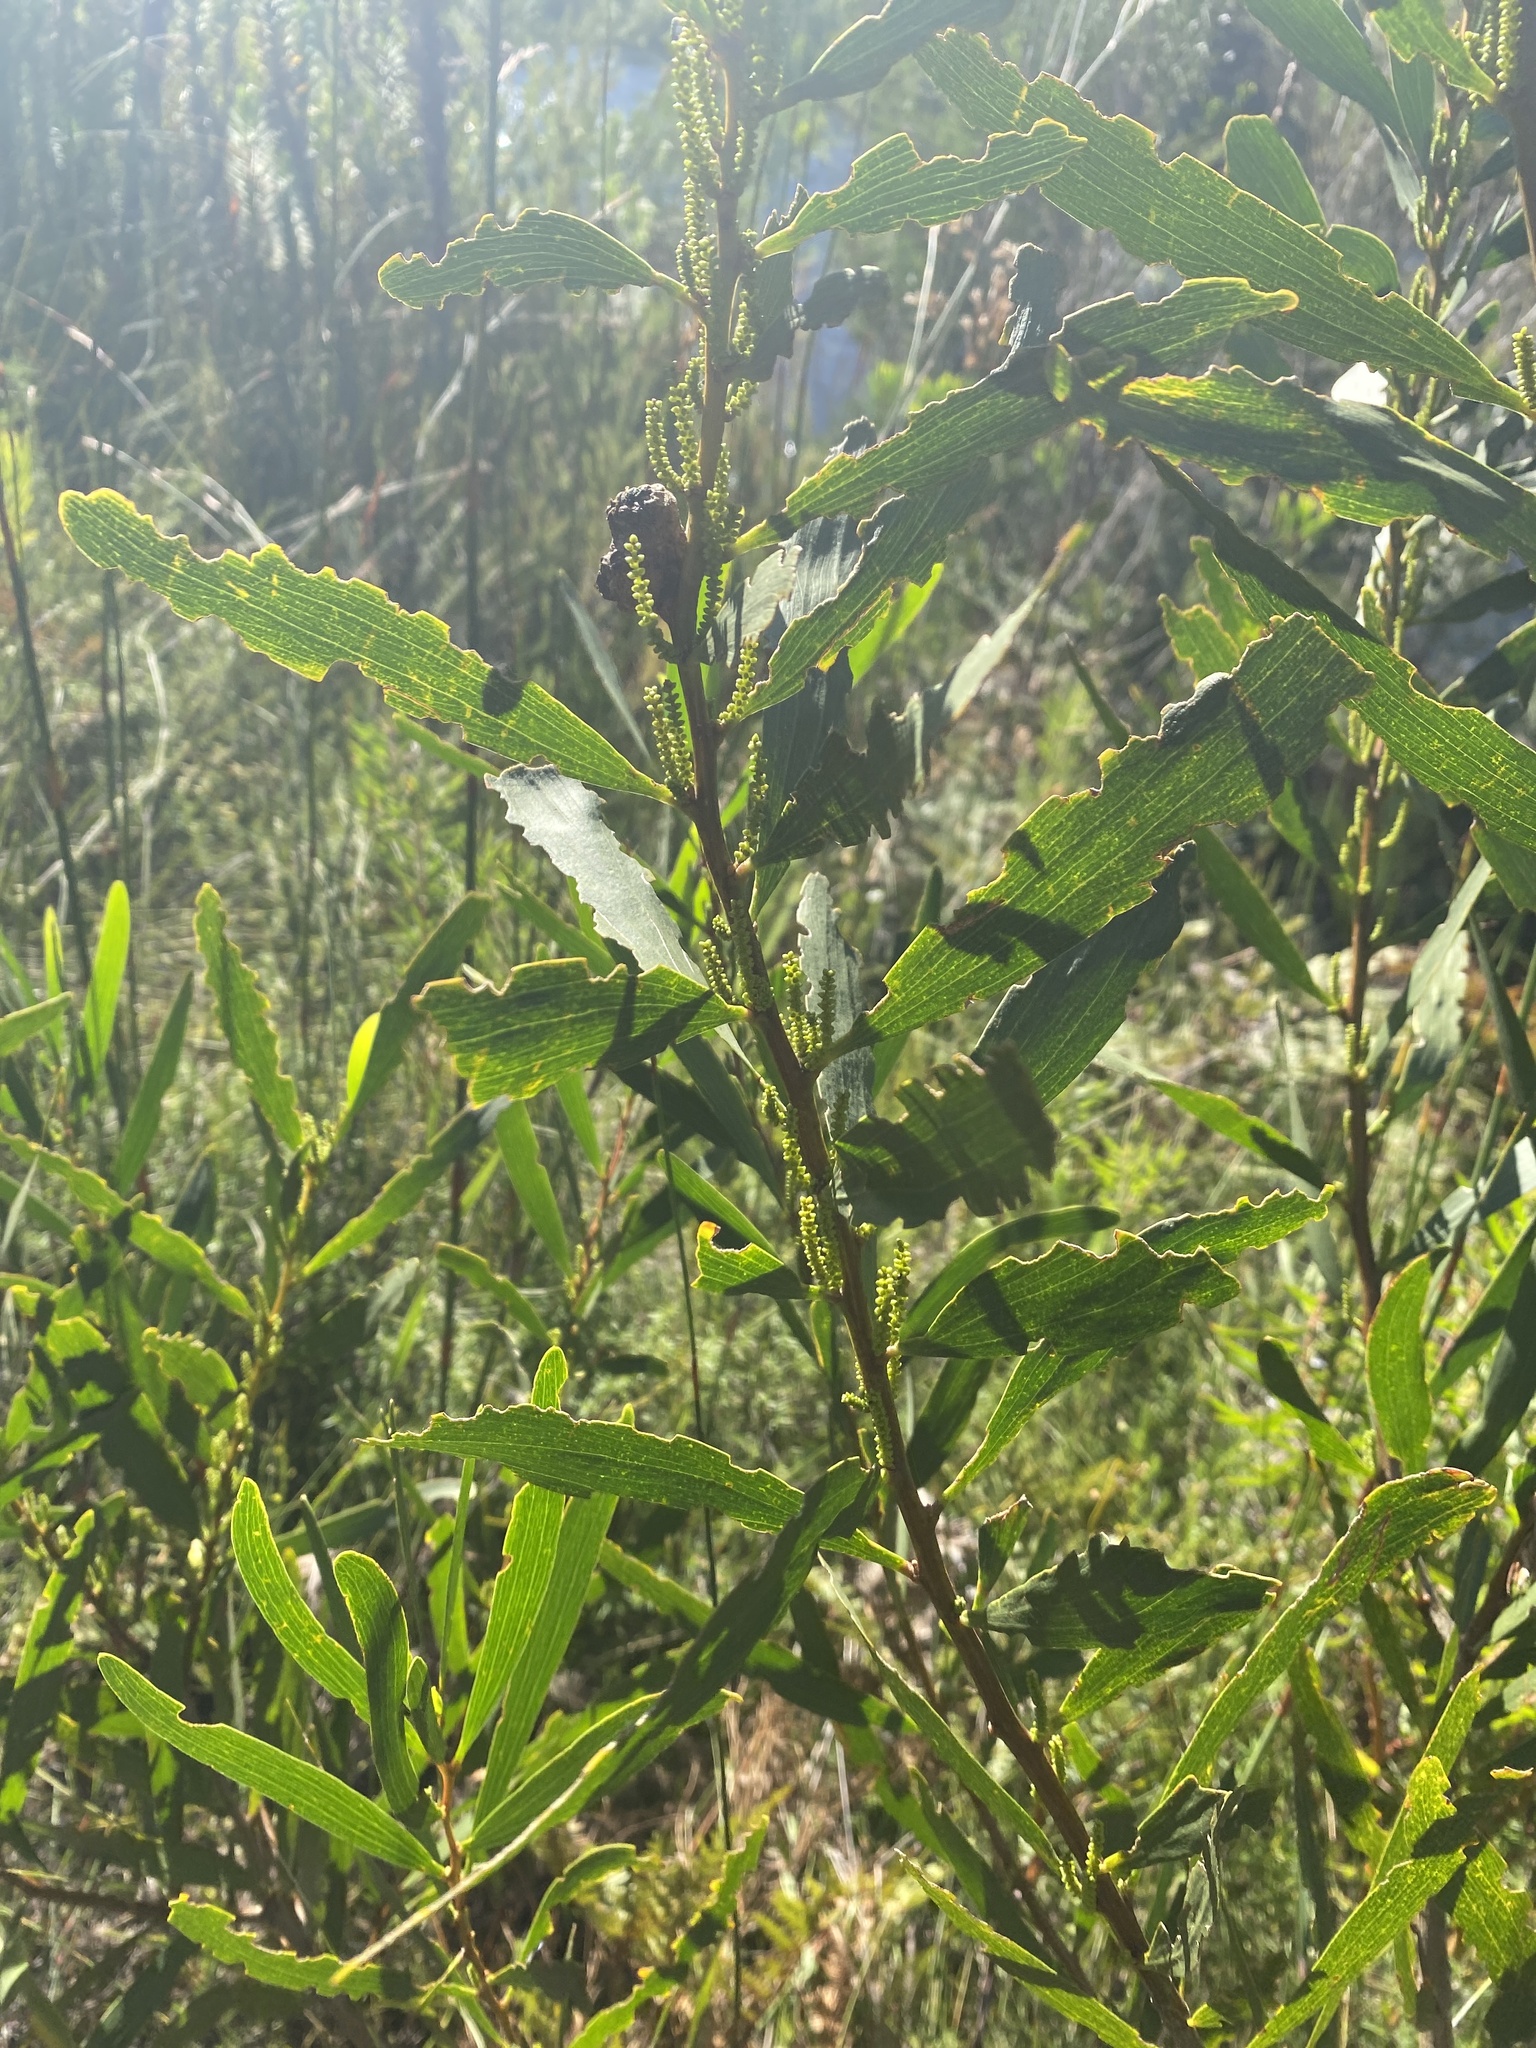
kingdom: Plantae
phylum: Tracheophyta
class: Magnoliopsida
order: Fabales
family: Fabaceae
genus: Acacia
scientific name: Acacia longifolia
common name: Sydney golden wattle
